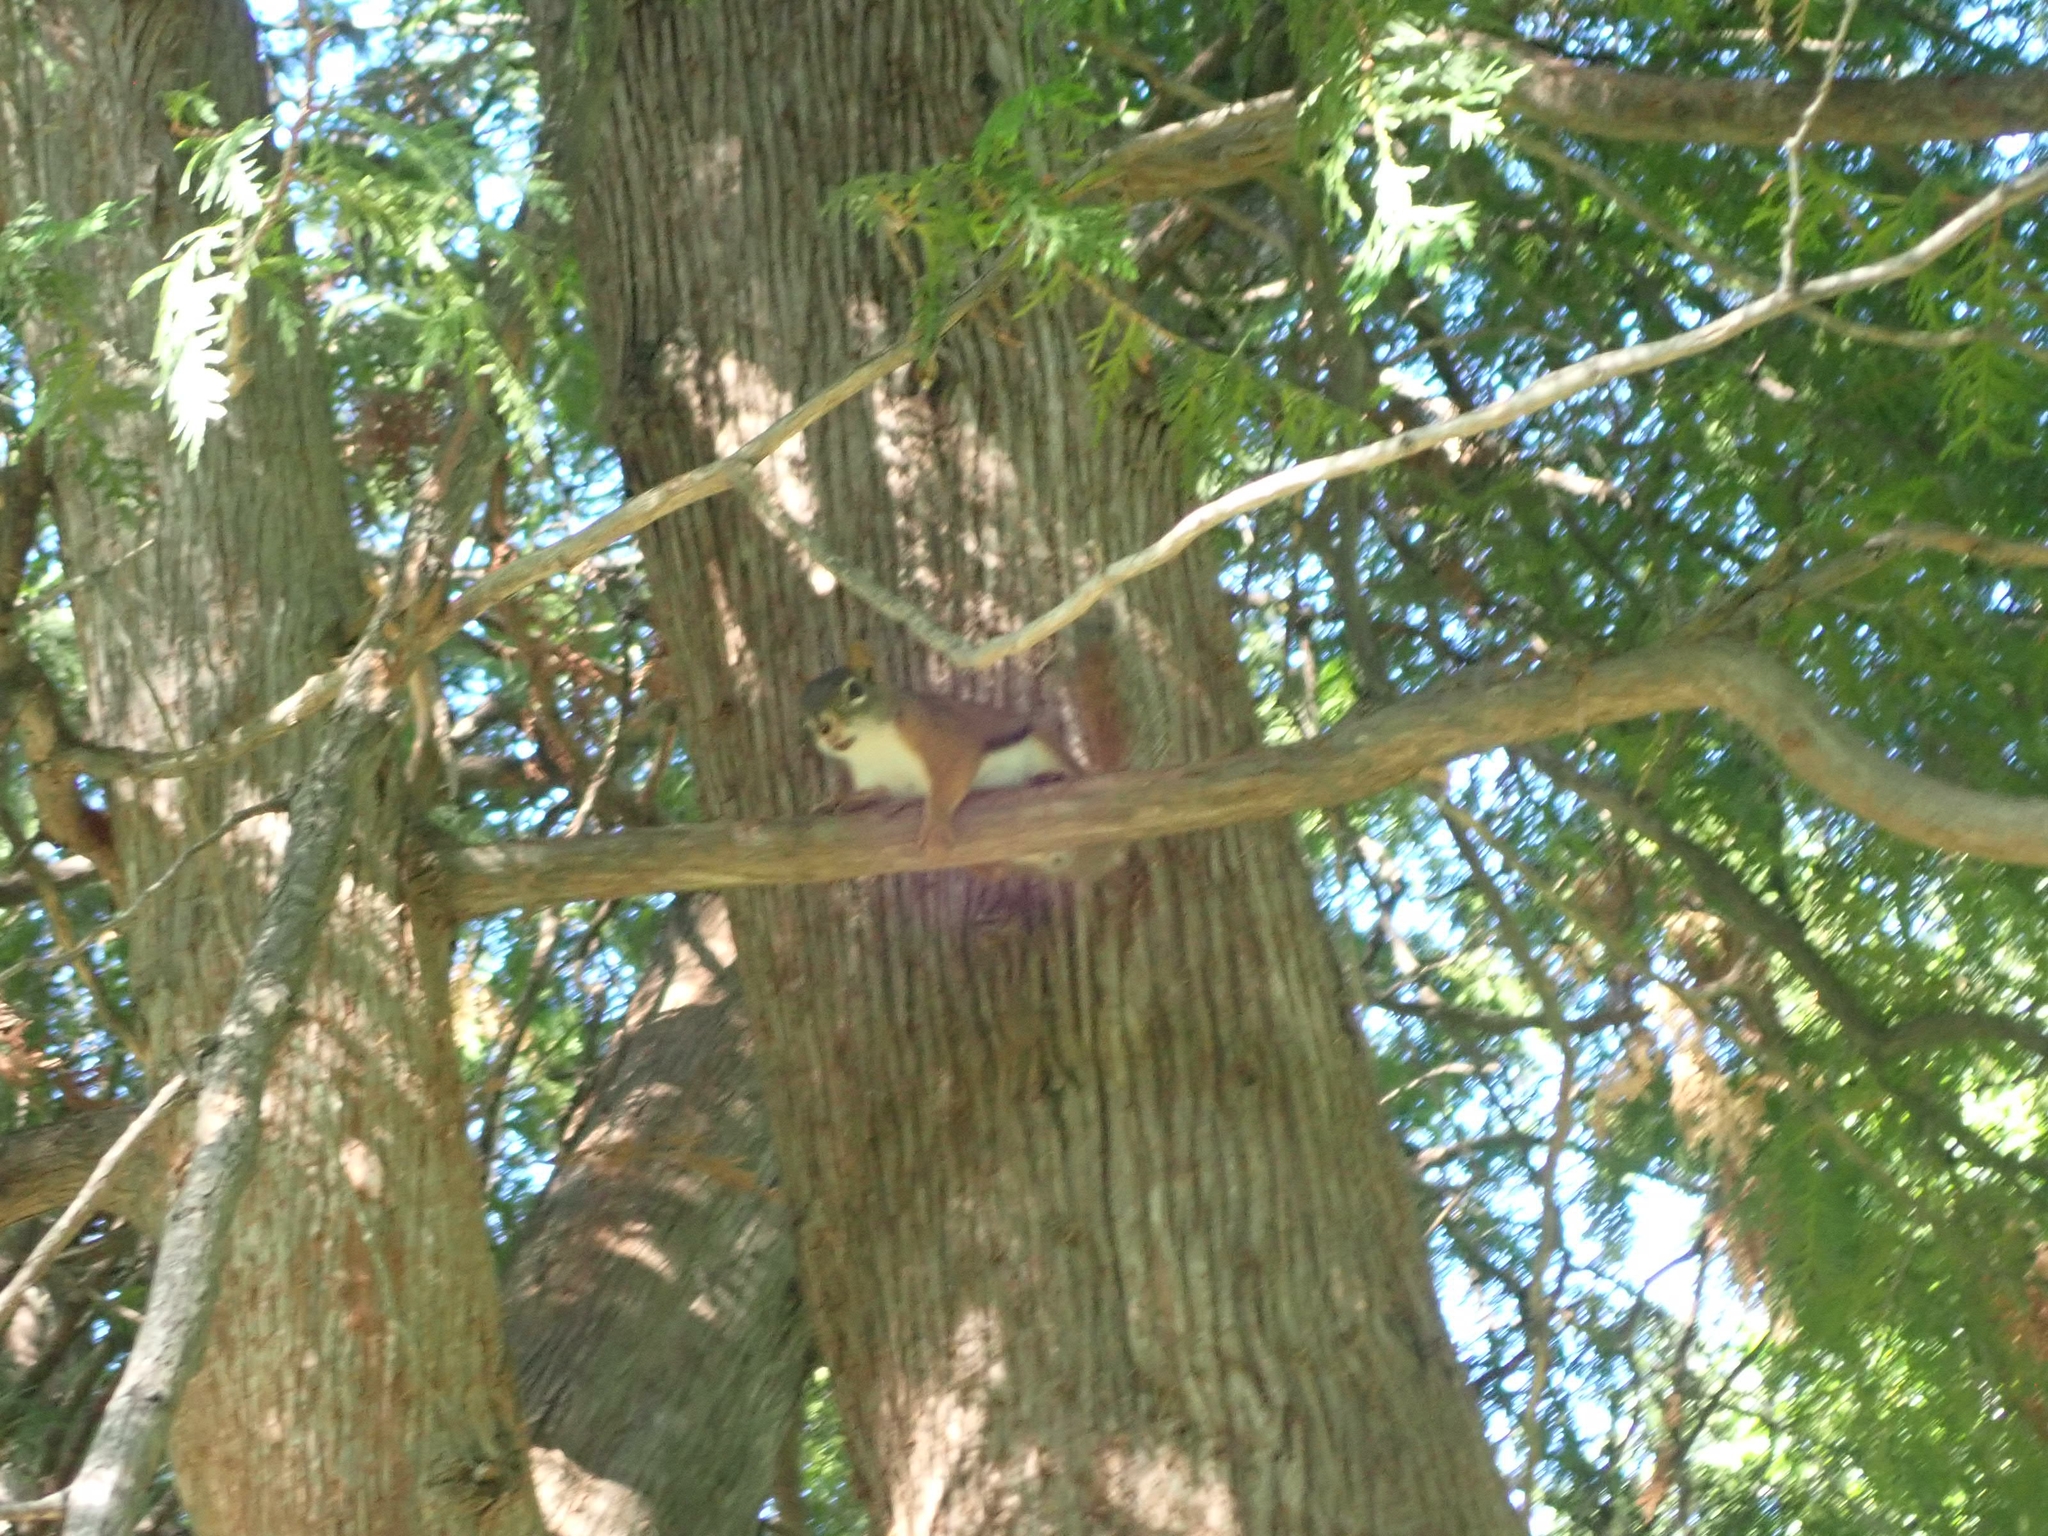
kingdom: Animalia
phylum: Chordata
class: Mammalia
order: Rodentia
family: Sciuridae
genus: Tamiasciurus
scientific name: Tamiasciurus hudsonicus
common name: Red squirrel
